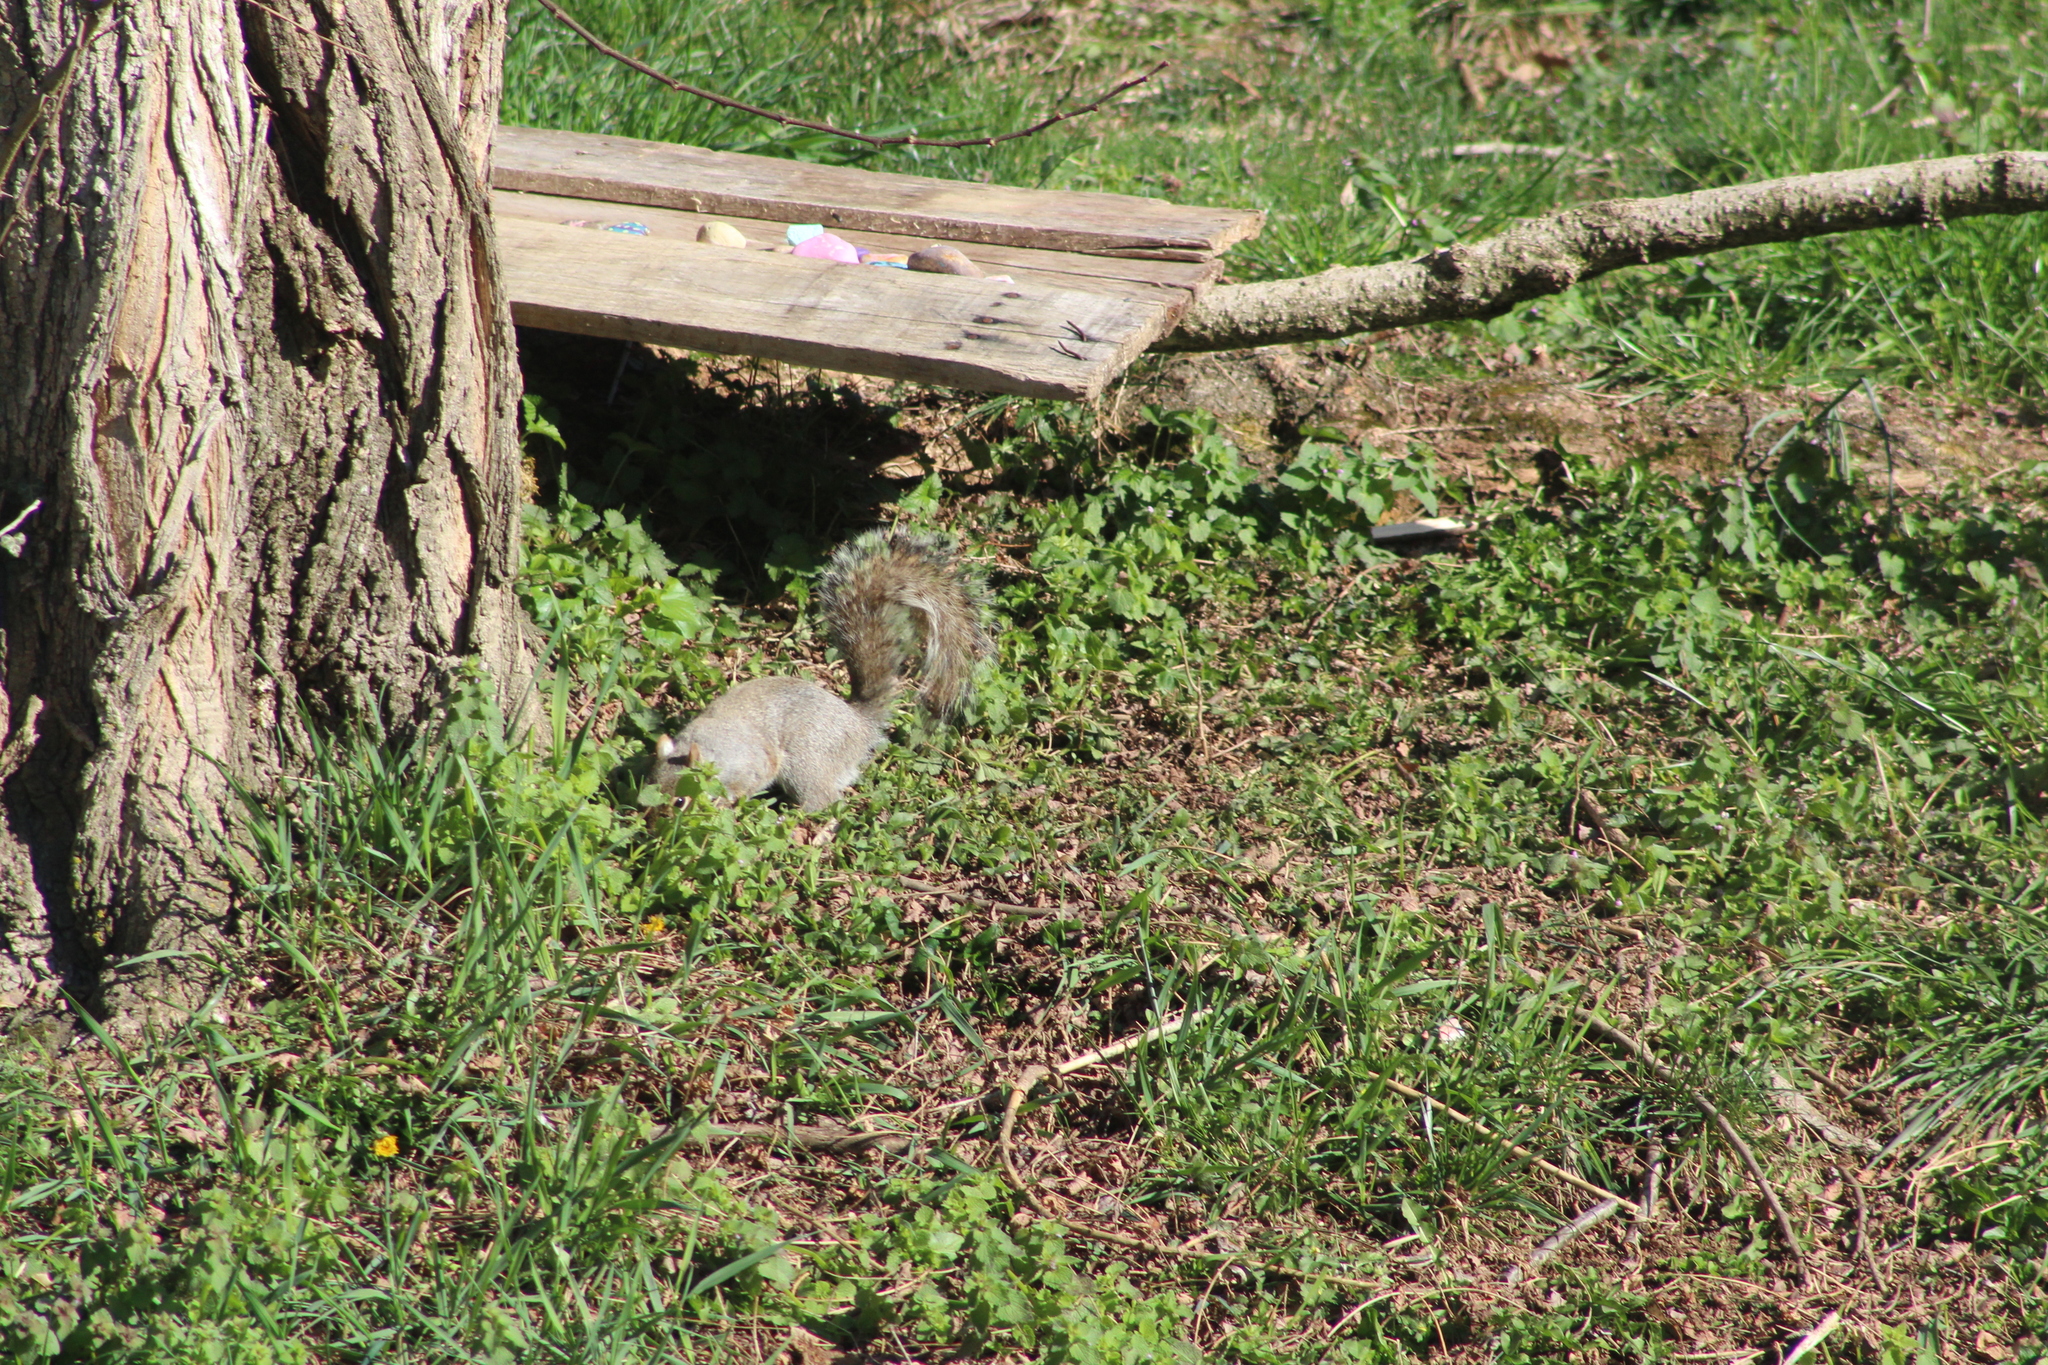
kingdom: Animalia
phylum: Chordata
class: Mammalia
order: Rodentia
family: Sciuridae
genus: Sciurus
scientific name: Sciurus carolinensis
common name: Eastern gray squirrel
